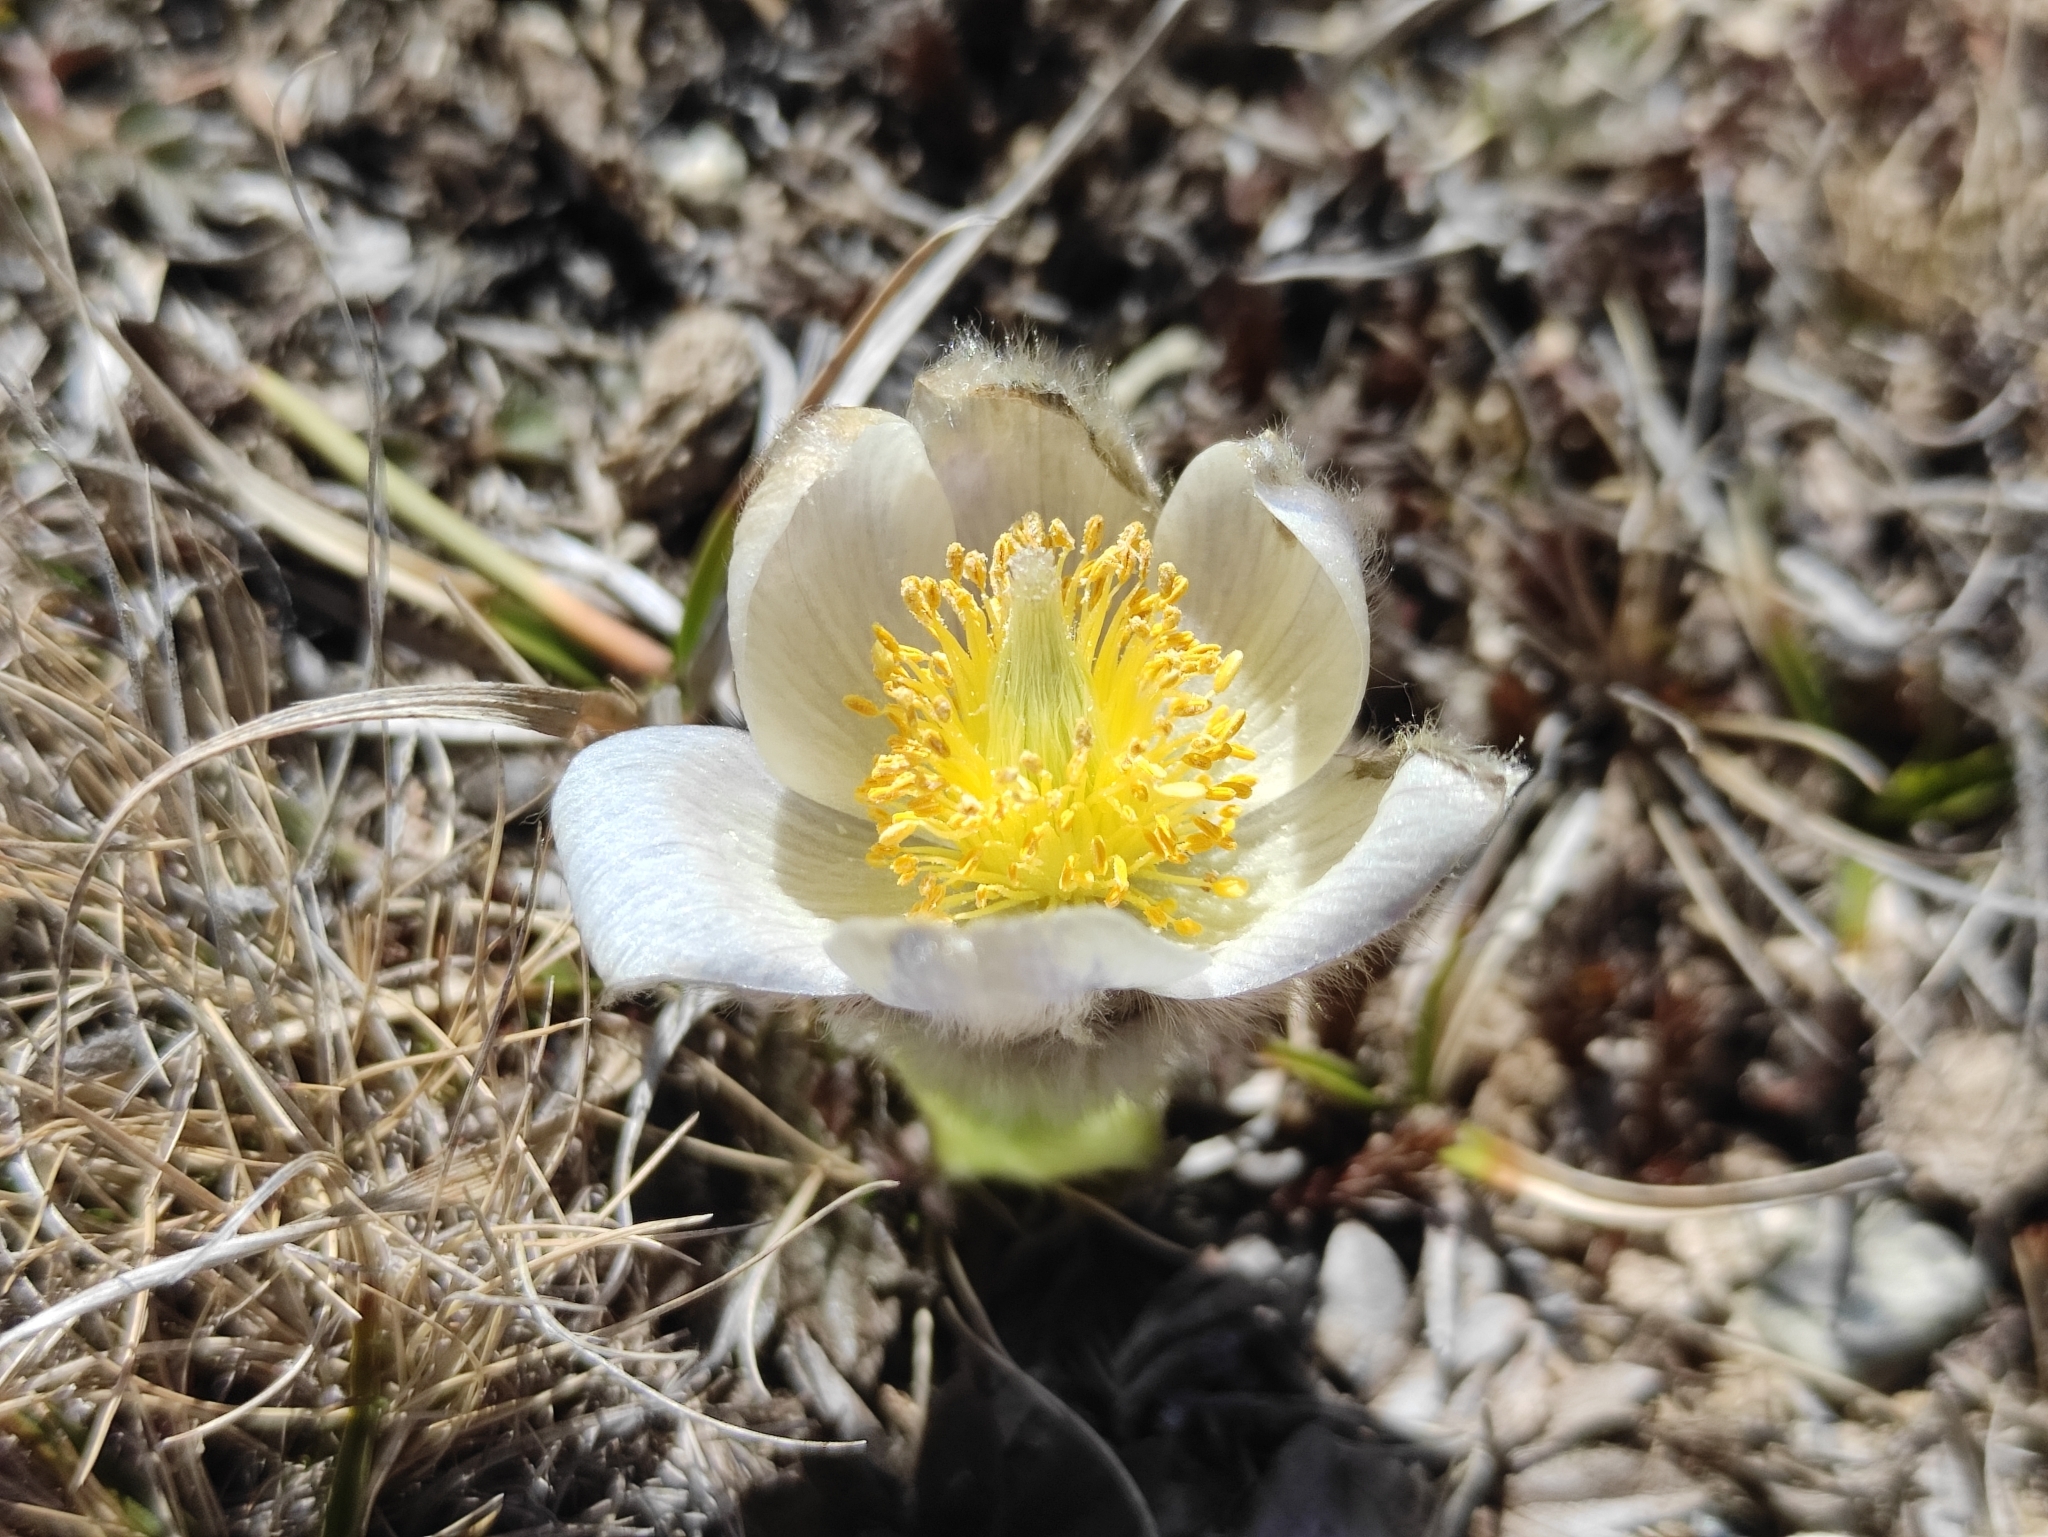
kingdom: Plantae
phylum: Tracheophyta
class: Magnoliopsida
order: Ranunculales
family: Ranunculaceae
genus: Pulsatilla
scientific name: Pulsatilla vernalis
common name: Spring pasque flower
